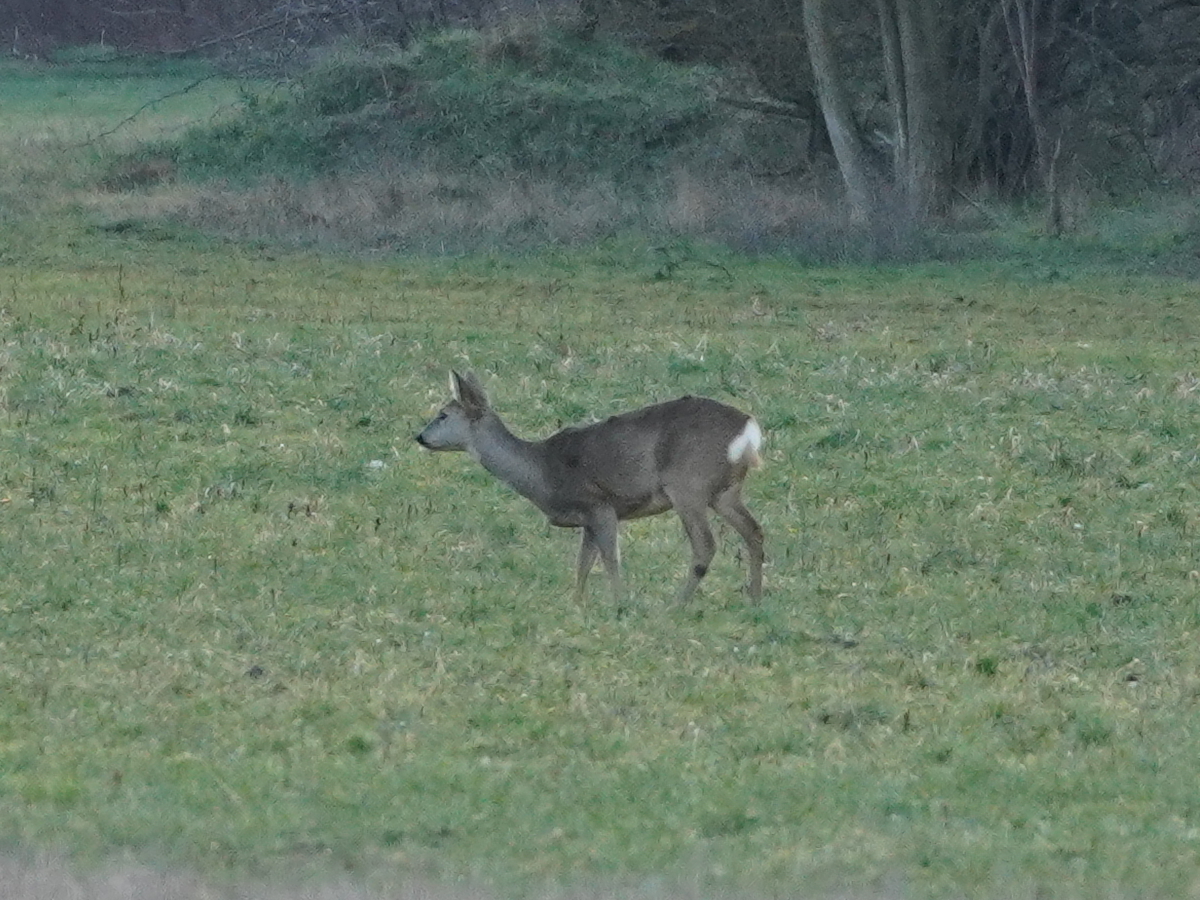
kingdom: Animalia
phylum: Chordata
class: Mammalia
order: Artiodactyla
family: Cervidae
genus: Capreolus
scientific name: Capreolus capreolus
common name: Western roe deer
